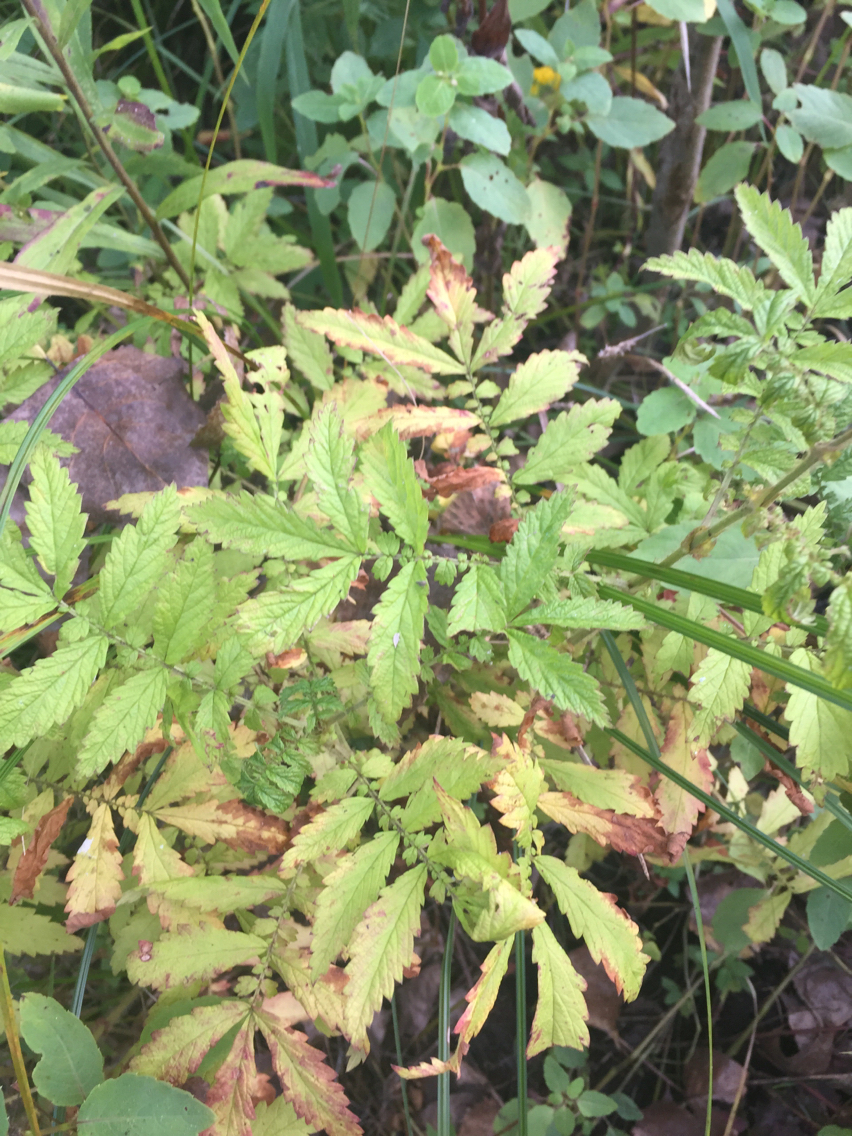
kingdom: Plantae
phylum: Tracheophyta
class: Magnoliopsida
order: Rosales
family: Rosaceae
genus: Agrimonia
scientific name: Agrimonia parviflora
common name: Harvest-lice
